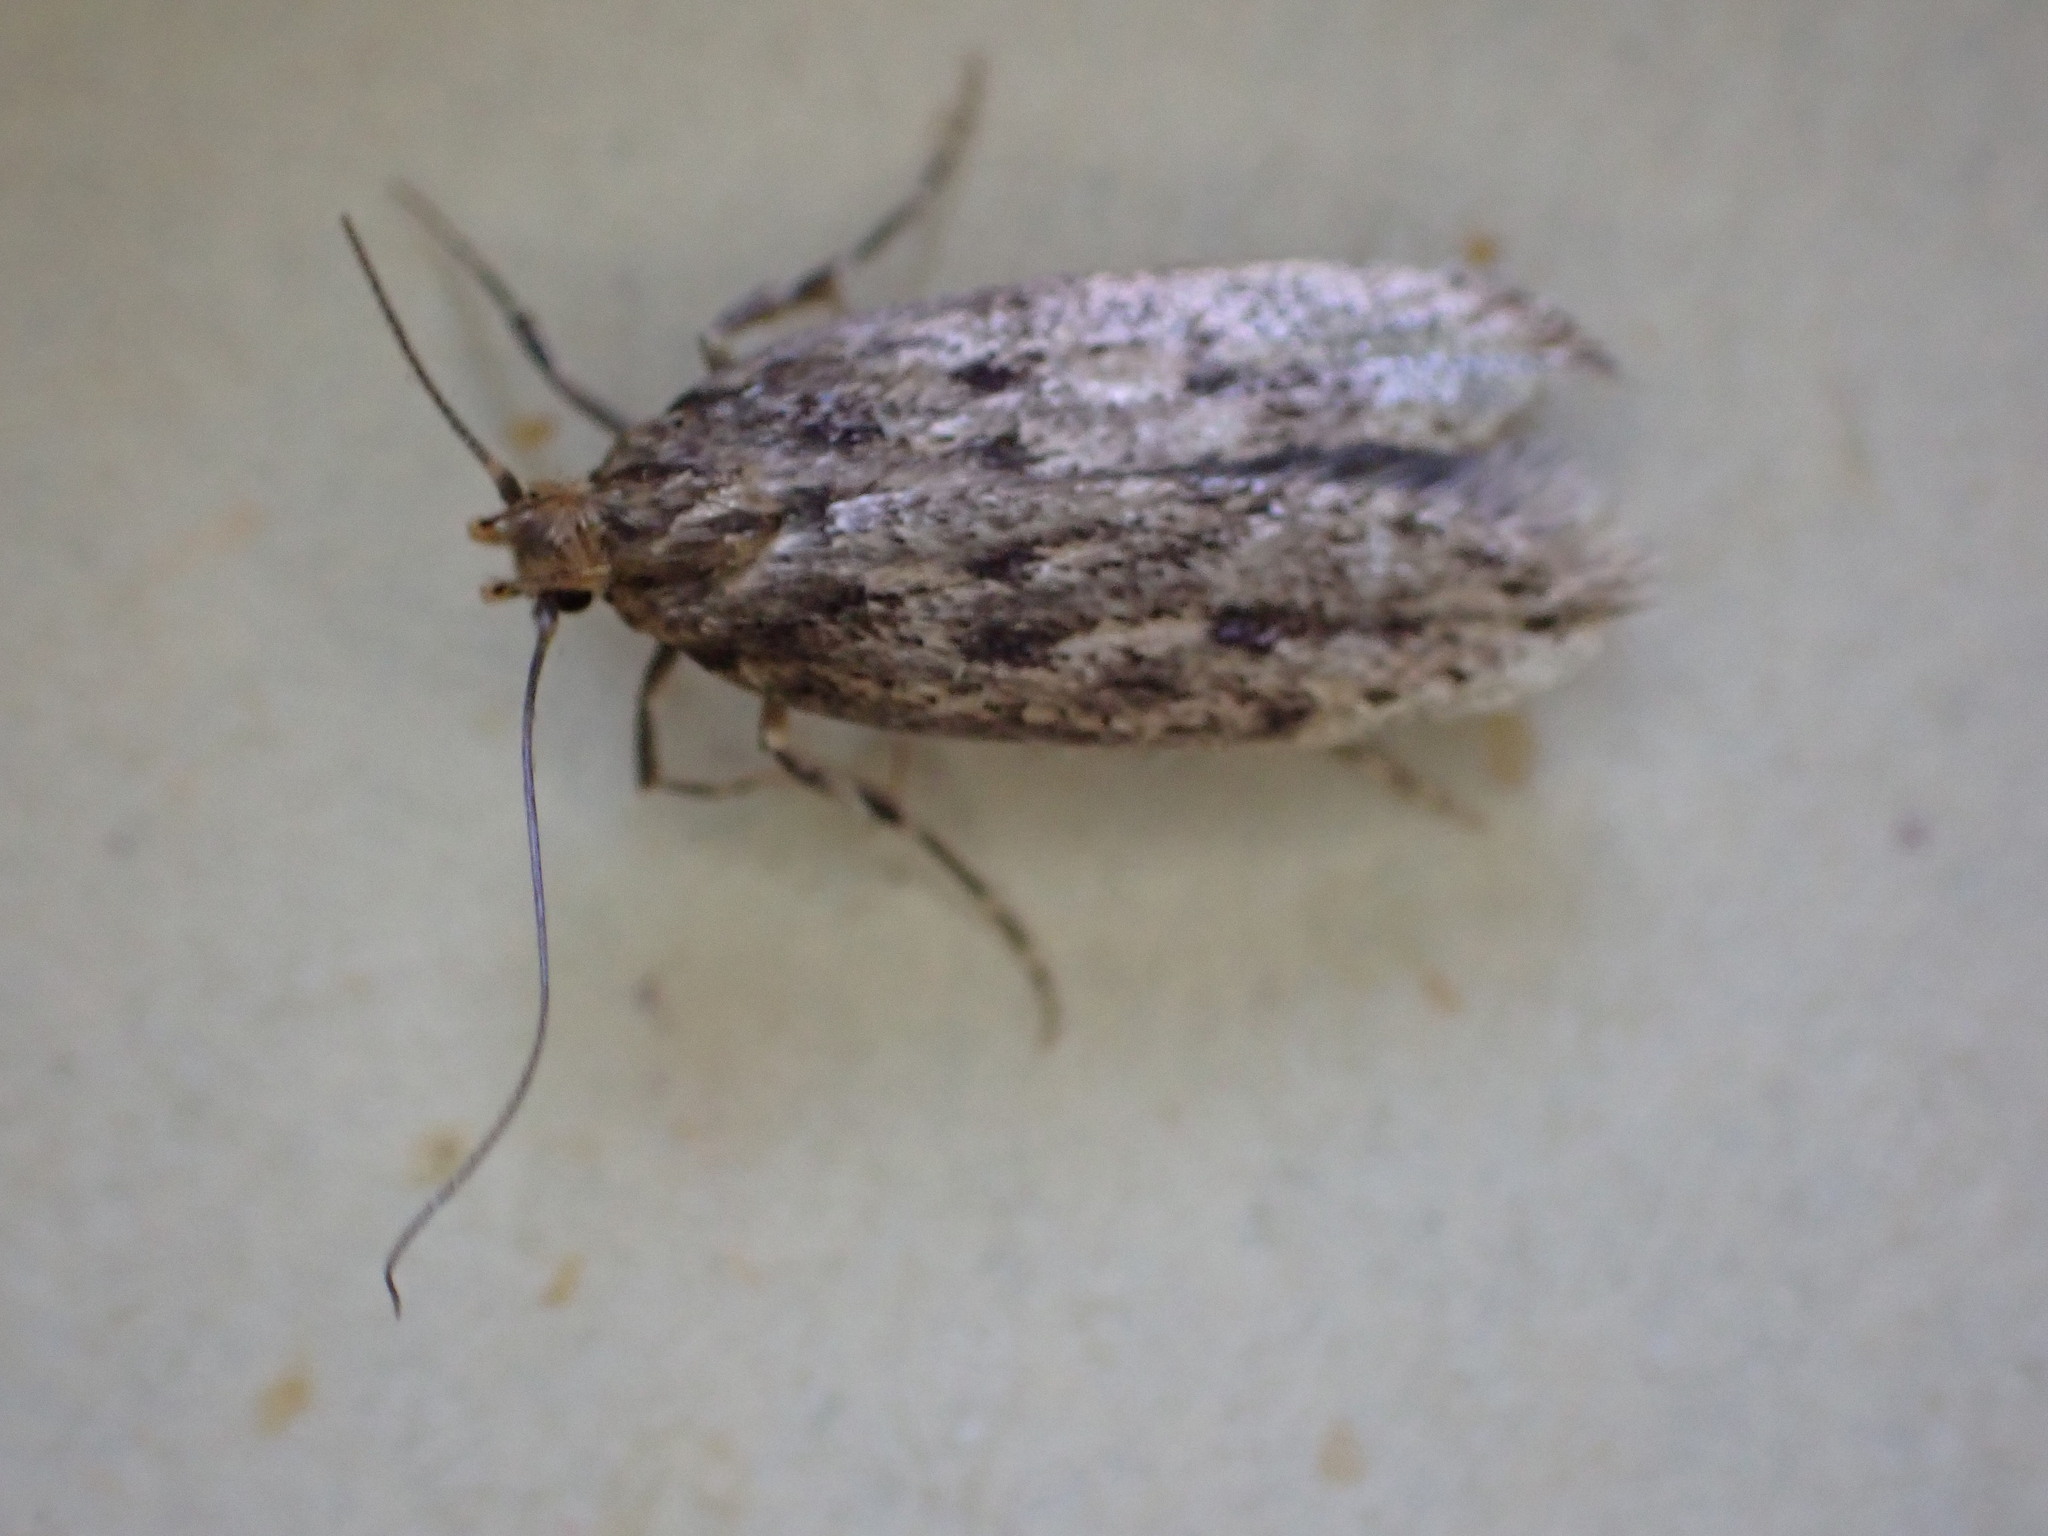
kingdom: Animalia
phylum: Arthropoda
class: Insecta
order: Lepidoptera
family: Oecophoridae
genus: Hofmannophila
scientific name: Hofmannophila pseudospretella
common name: Brown house moth
